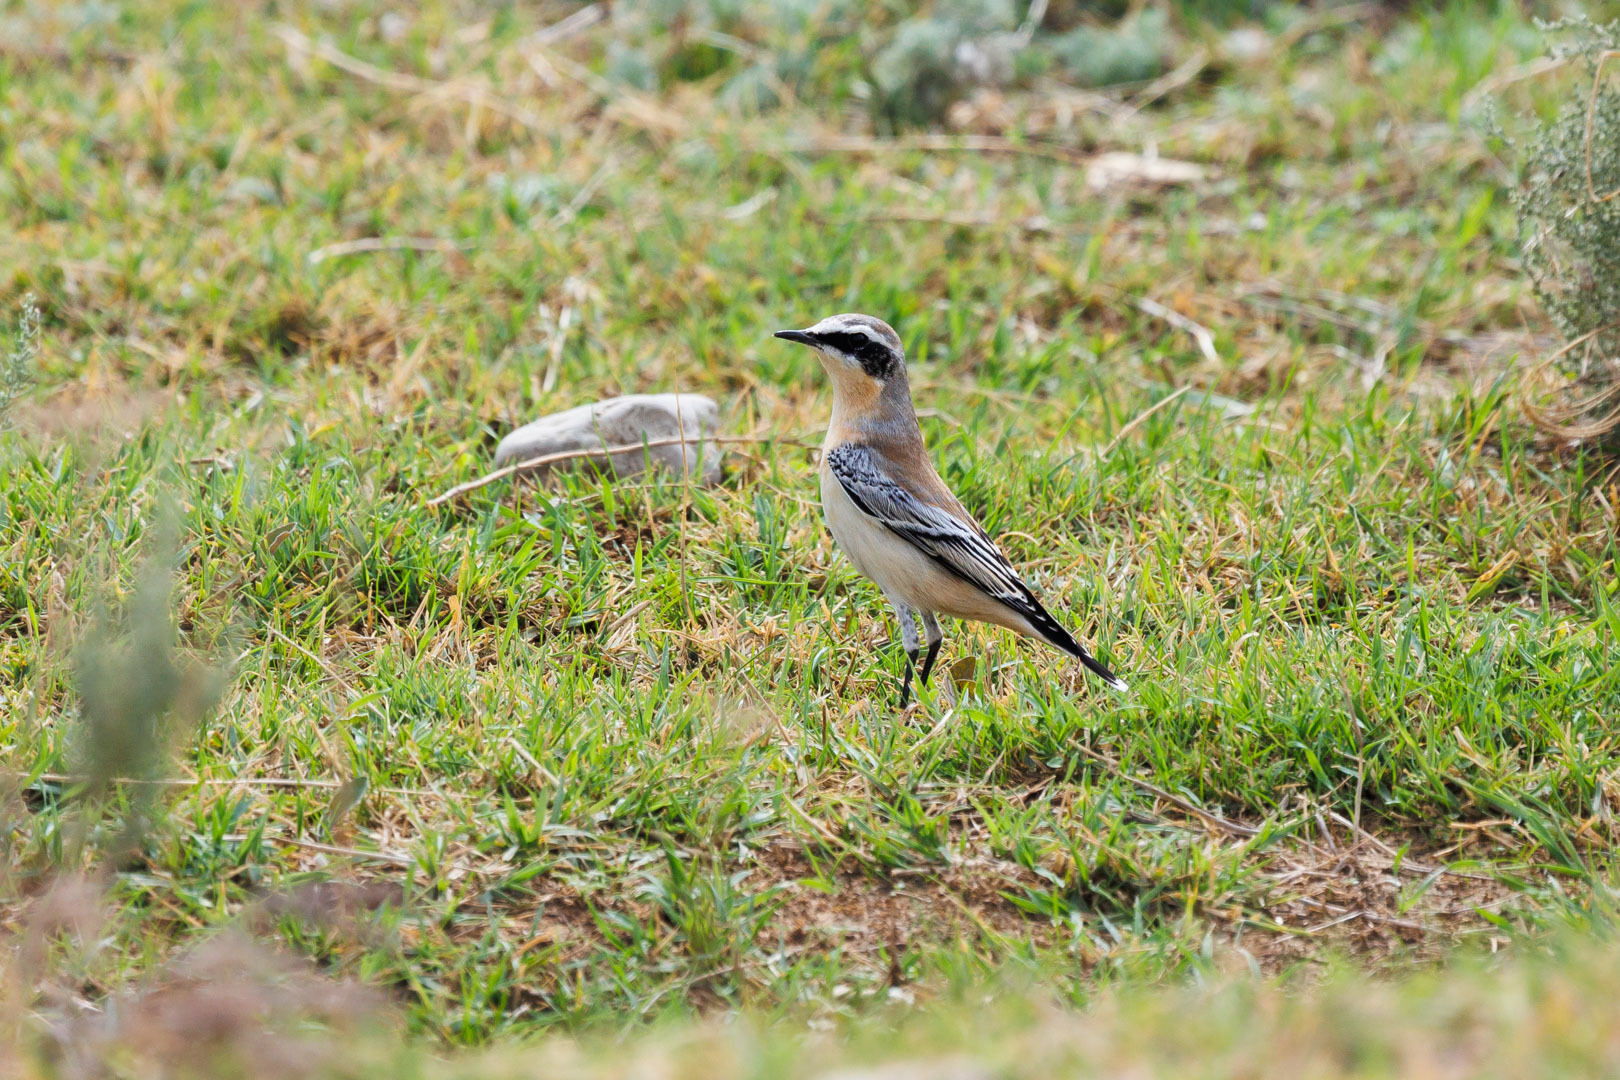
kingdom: Animalia
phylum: Chordata
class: Aves
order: Passeriformes
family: Muscicapidae
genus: Oenanthe
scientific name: Oenanthe oenanthe
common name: Northern wheatear
